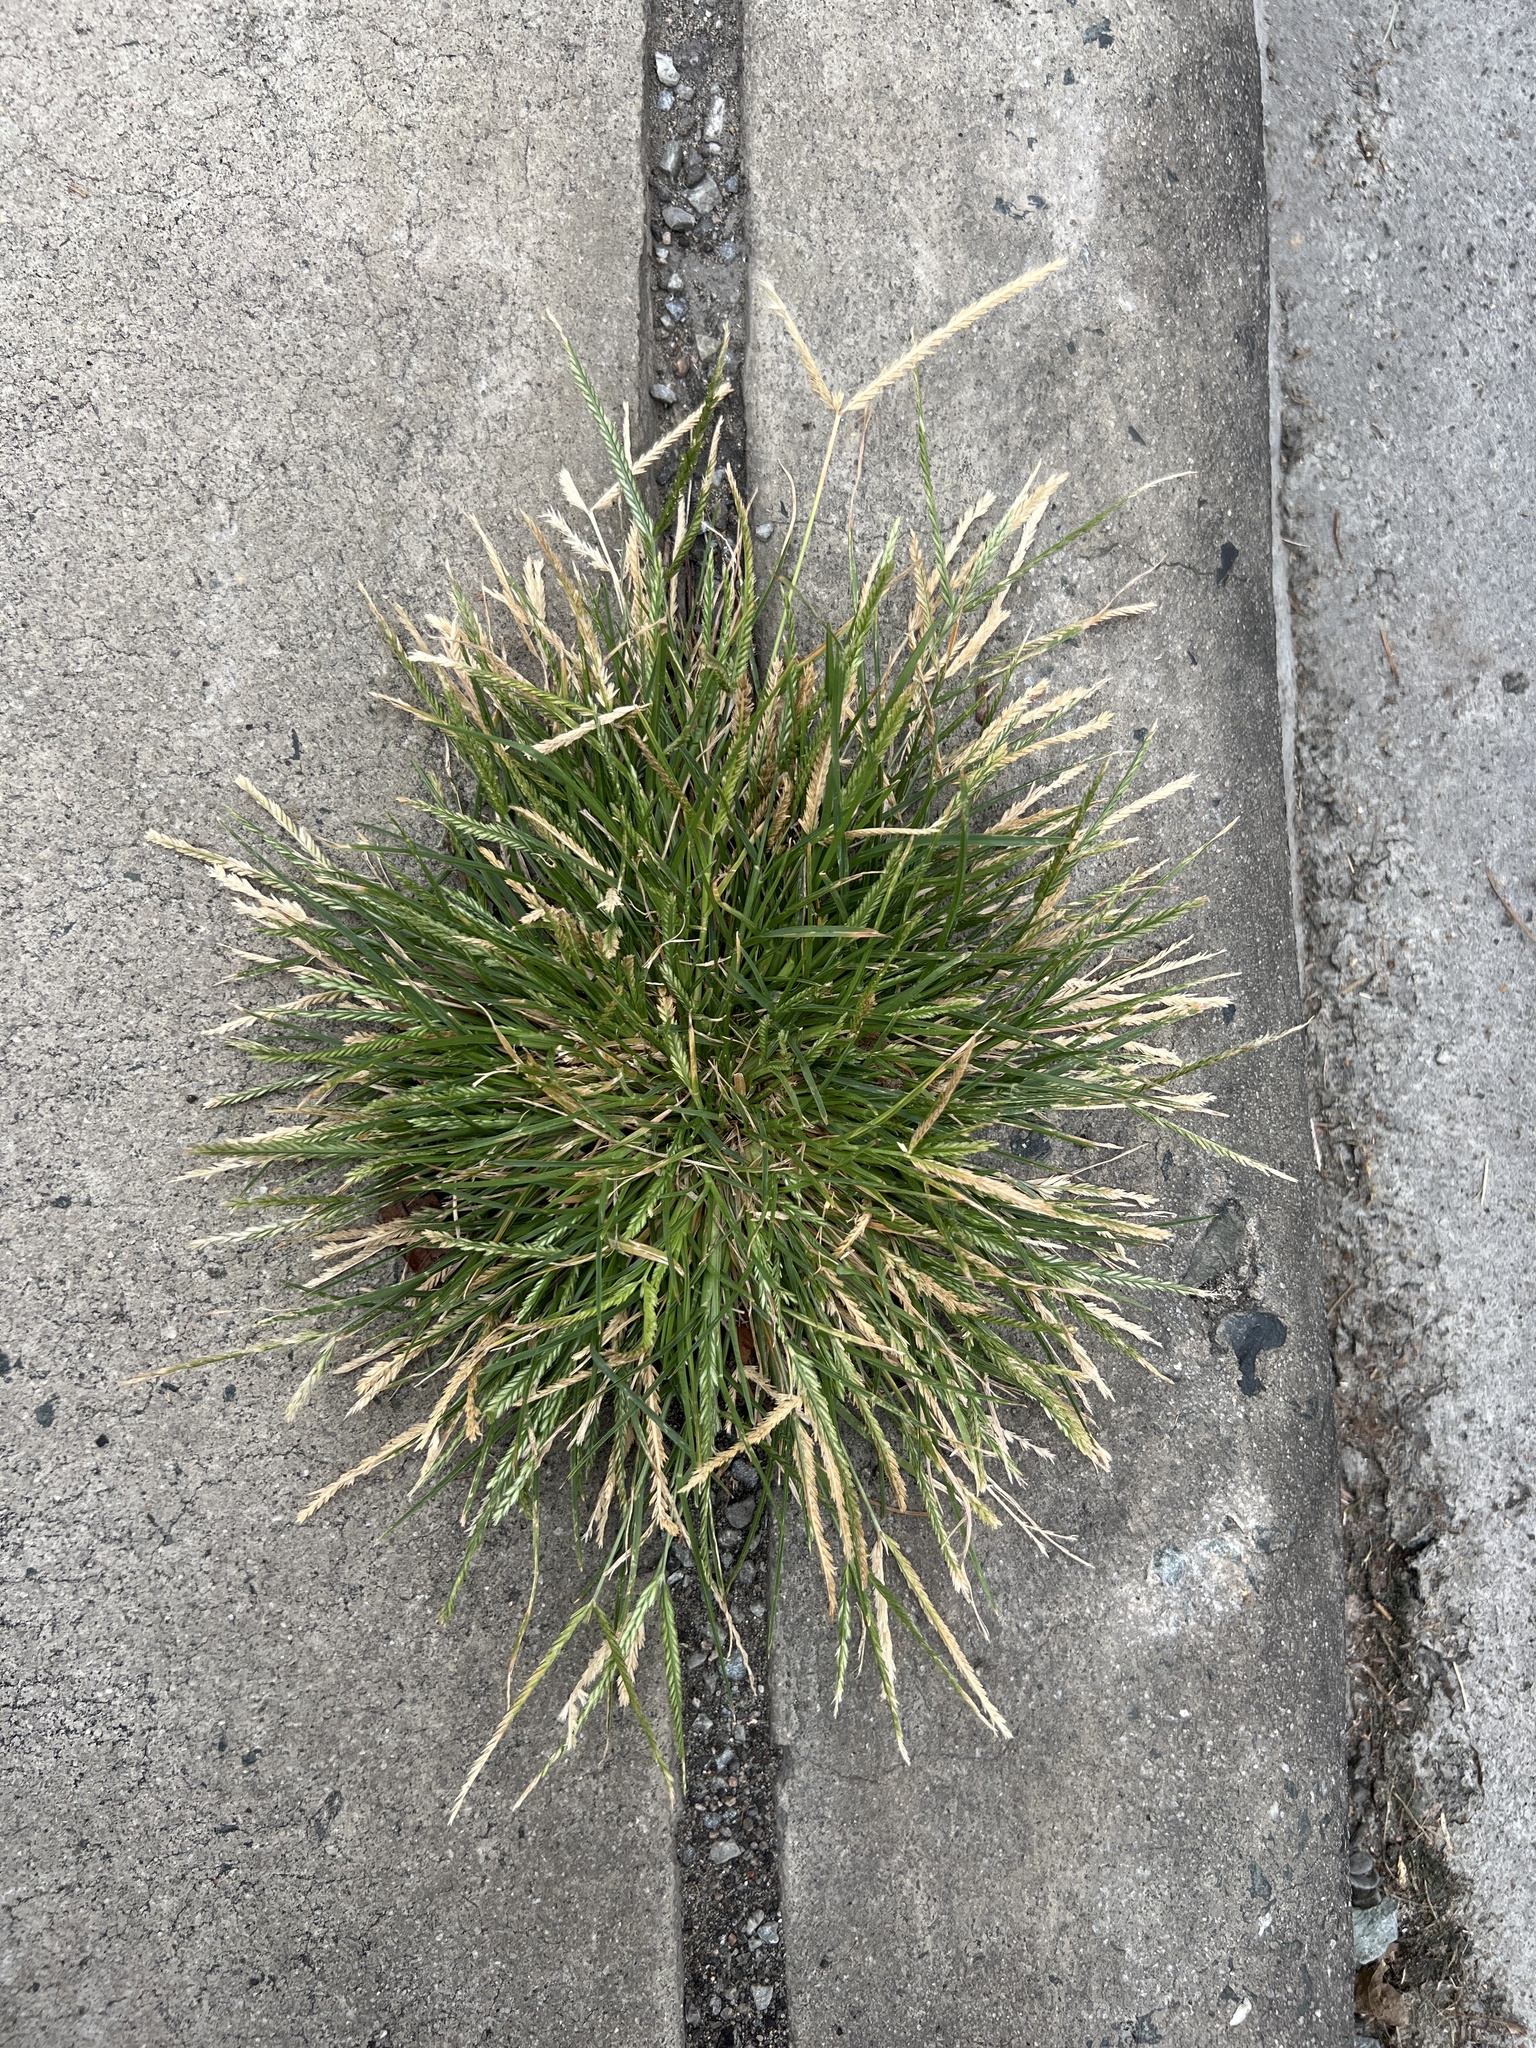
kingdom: Plantae
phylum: Tracheophyta
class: Liliopsida
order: Poales
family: Poaceae
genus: Eleusine
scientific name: Eleusine indica
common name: Yard-grass
